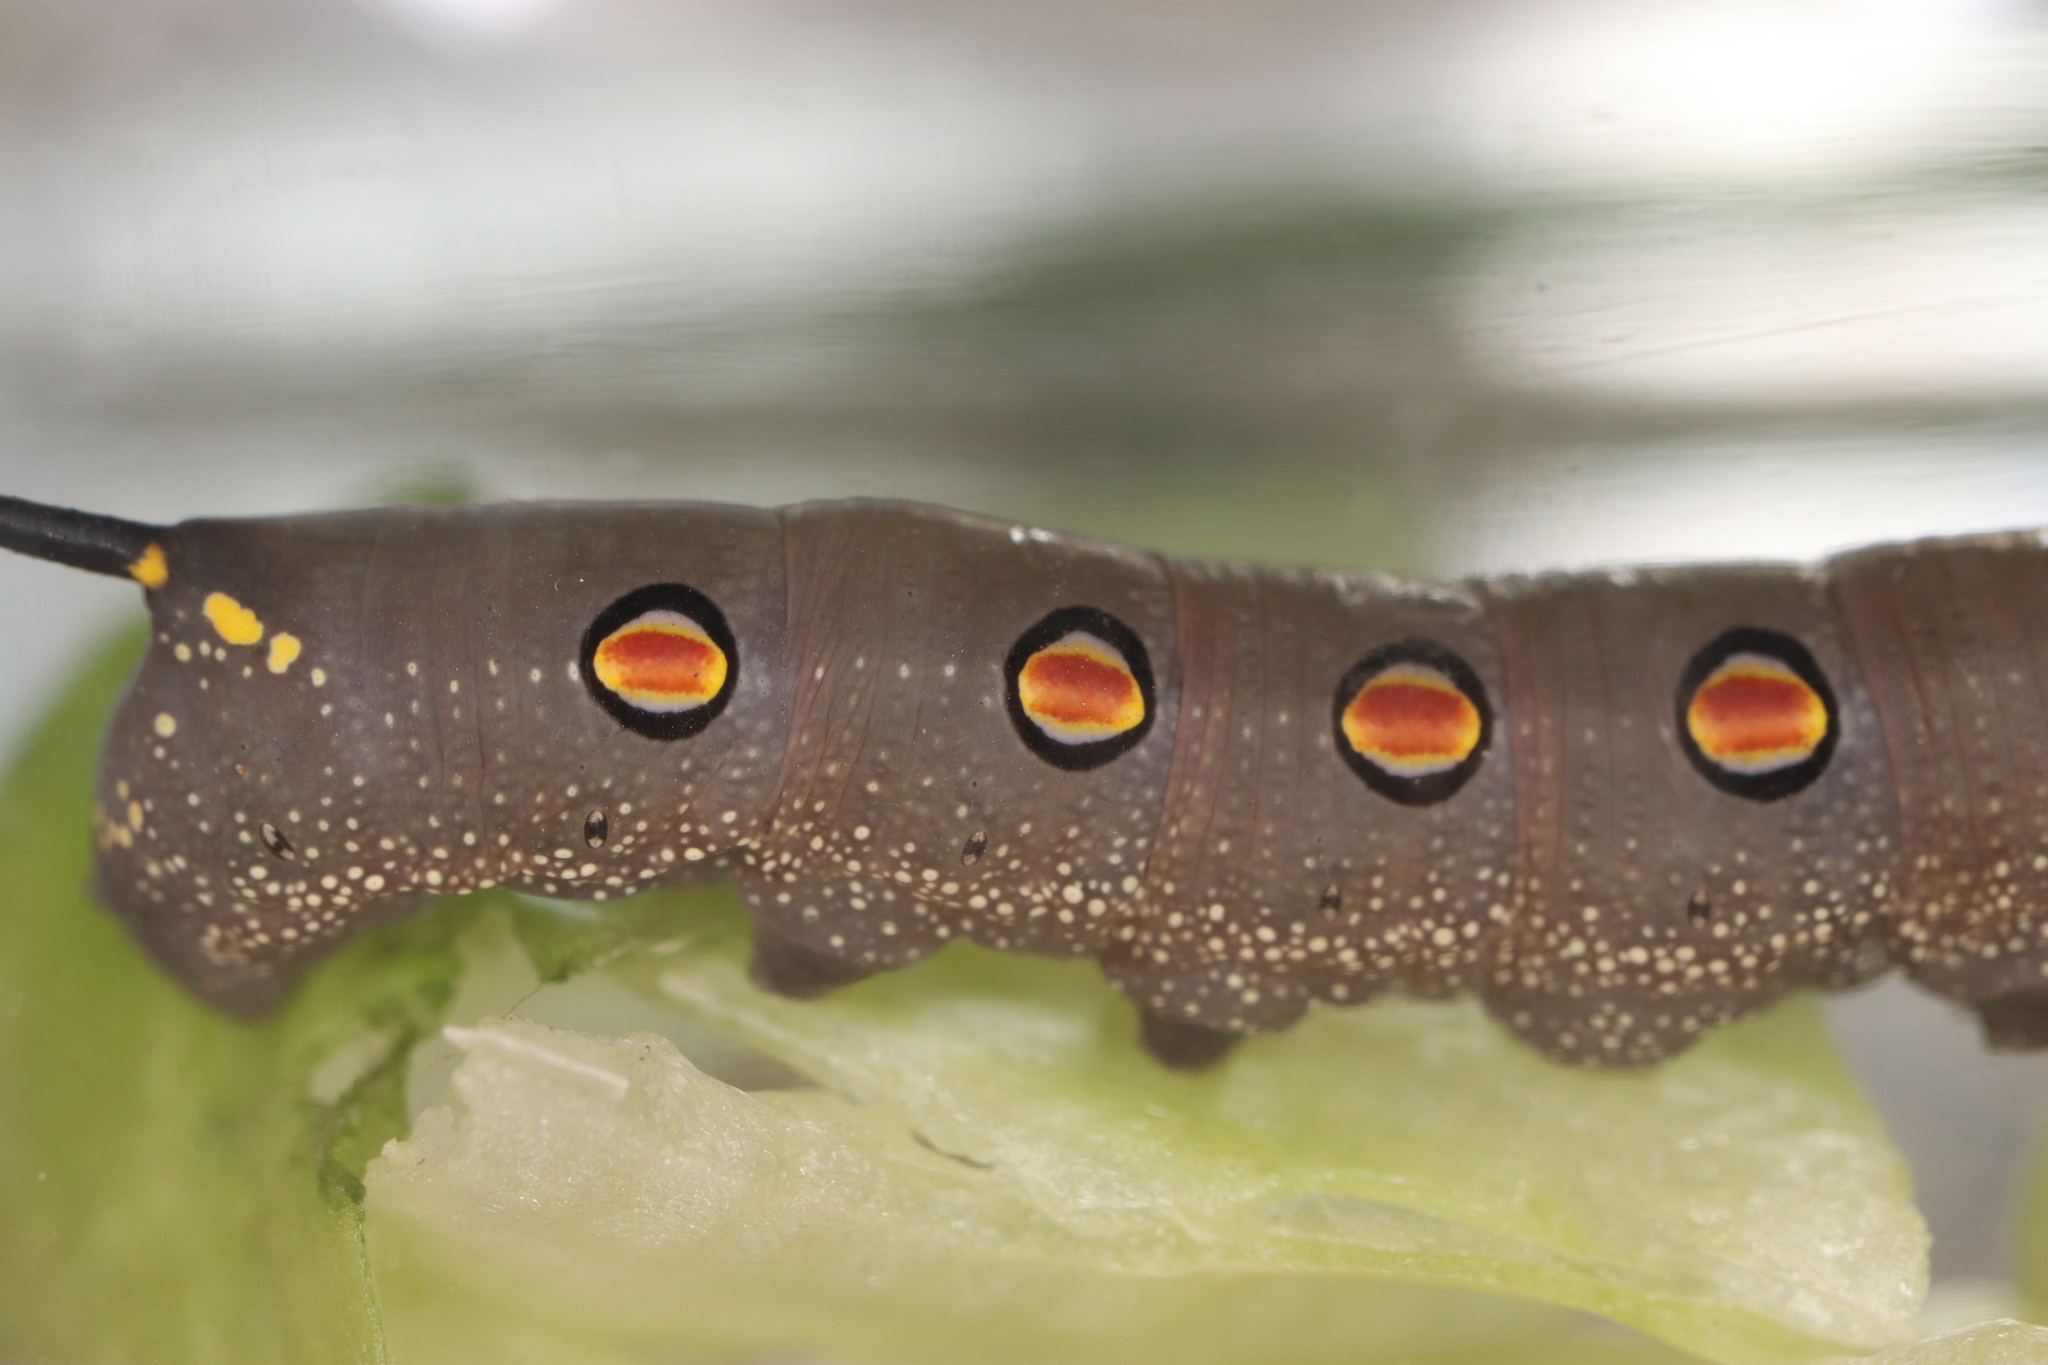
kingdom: Animalia
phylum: Arthropoda
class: Insecta
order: Lepidoptera
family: Sphingidae
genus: Theretra
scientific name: Theretra oldenlandiae
